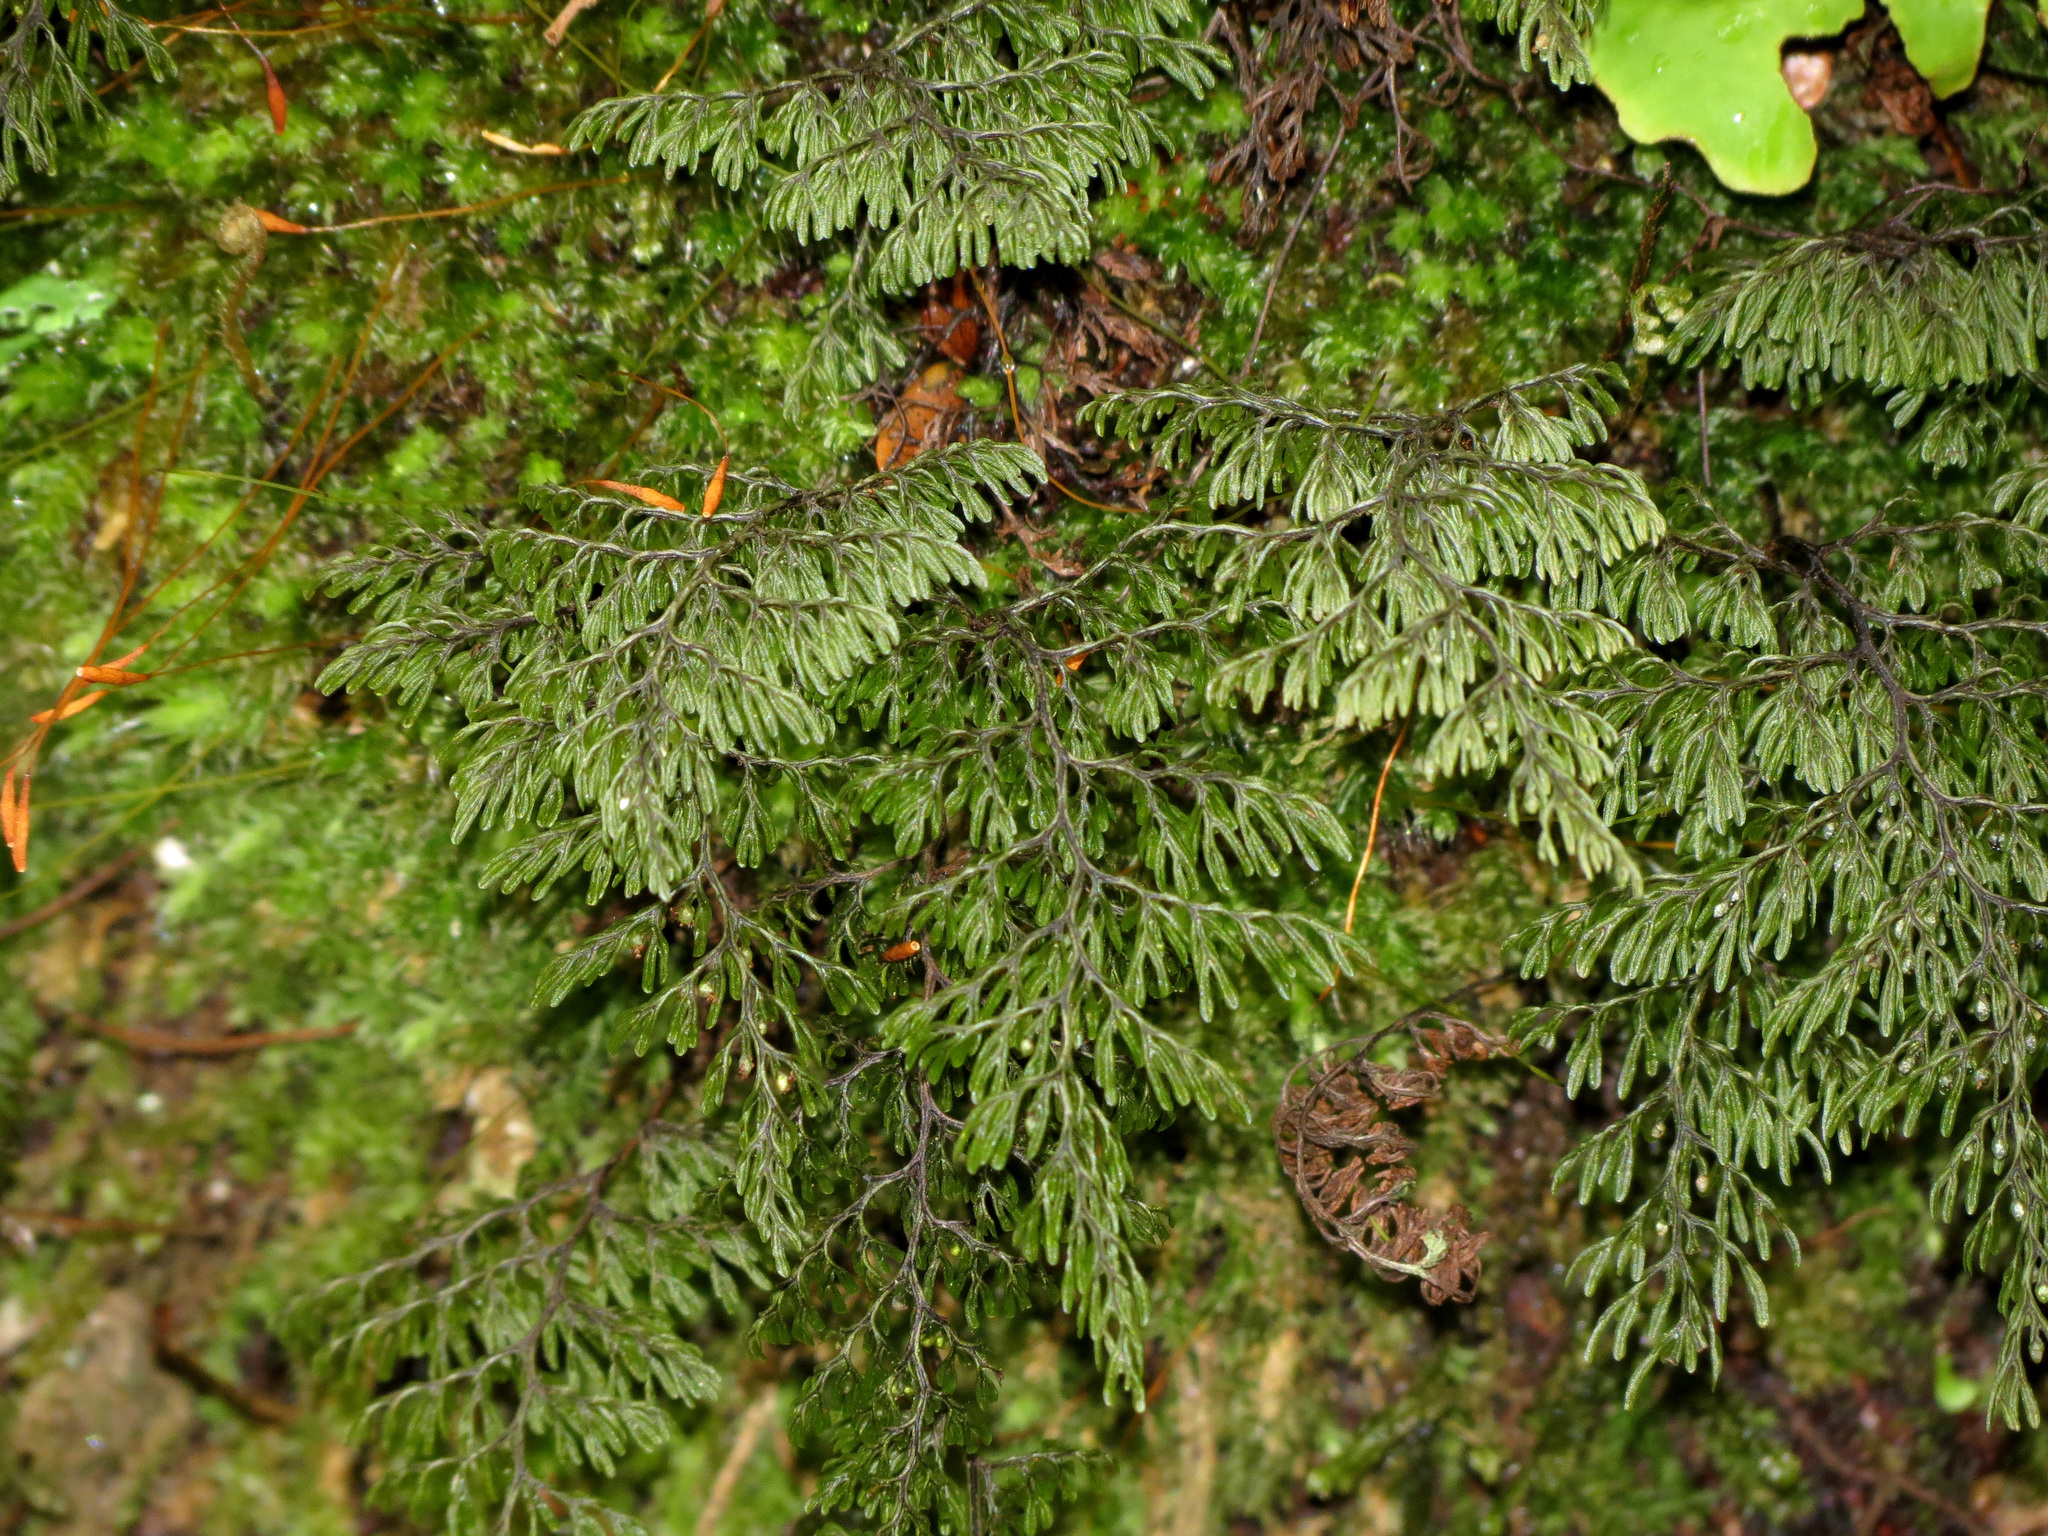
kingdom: Plantae
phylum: Tracheophyta
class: Polypodiopsida
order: Hymenophyllales
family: Hymenophyllaceae
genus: Hymenophyllum
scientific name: Hymenophyllum villosum
